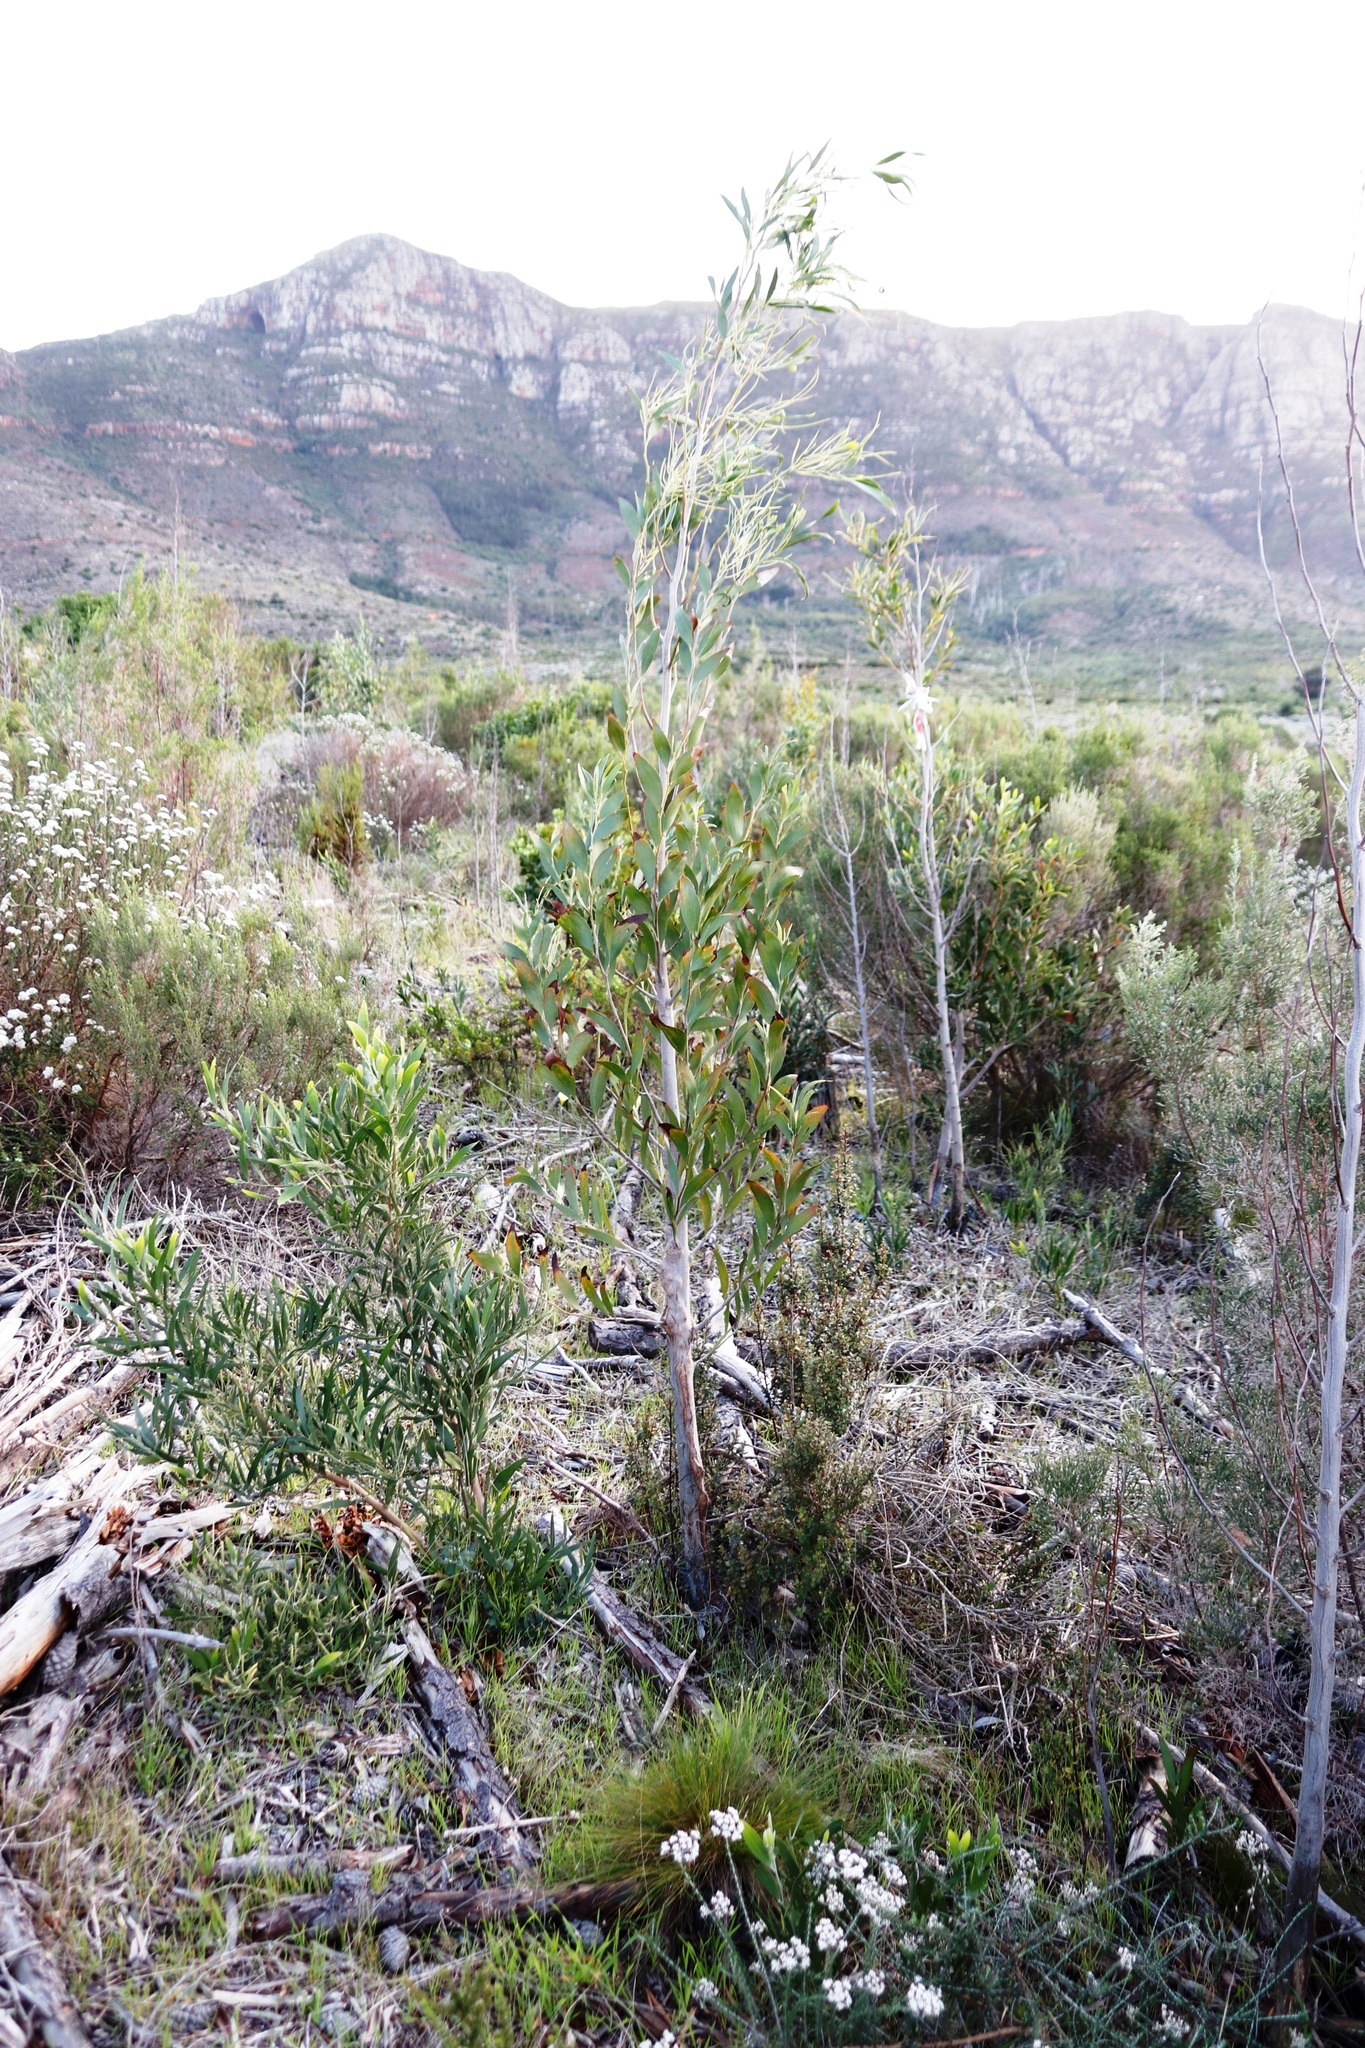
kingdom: Plantae
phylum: Tracheophyta
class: Magnoliopsida
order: Fabales
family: Fabaceae
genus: Acacia
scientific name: Acacia melanoxylon
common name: Blackwood
